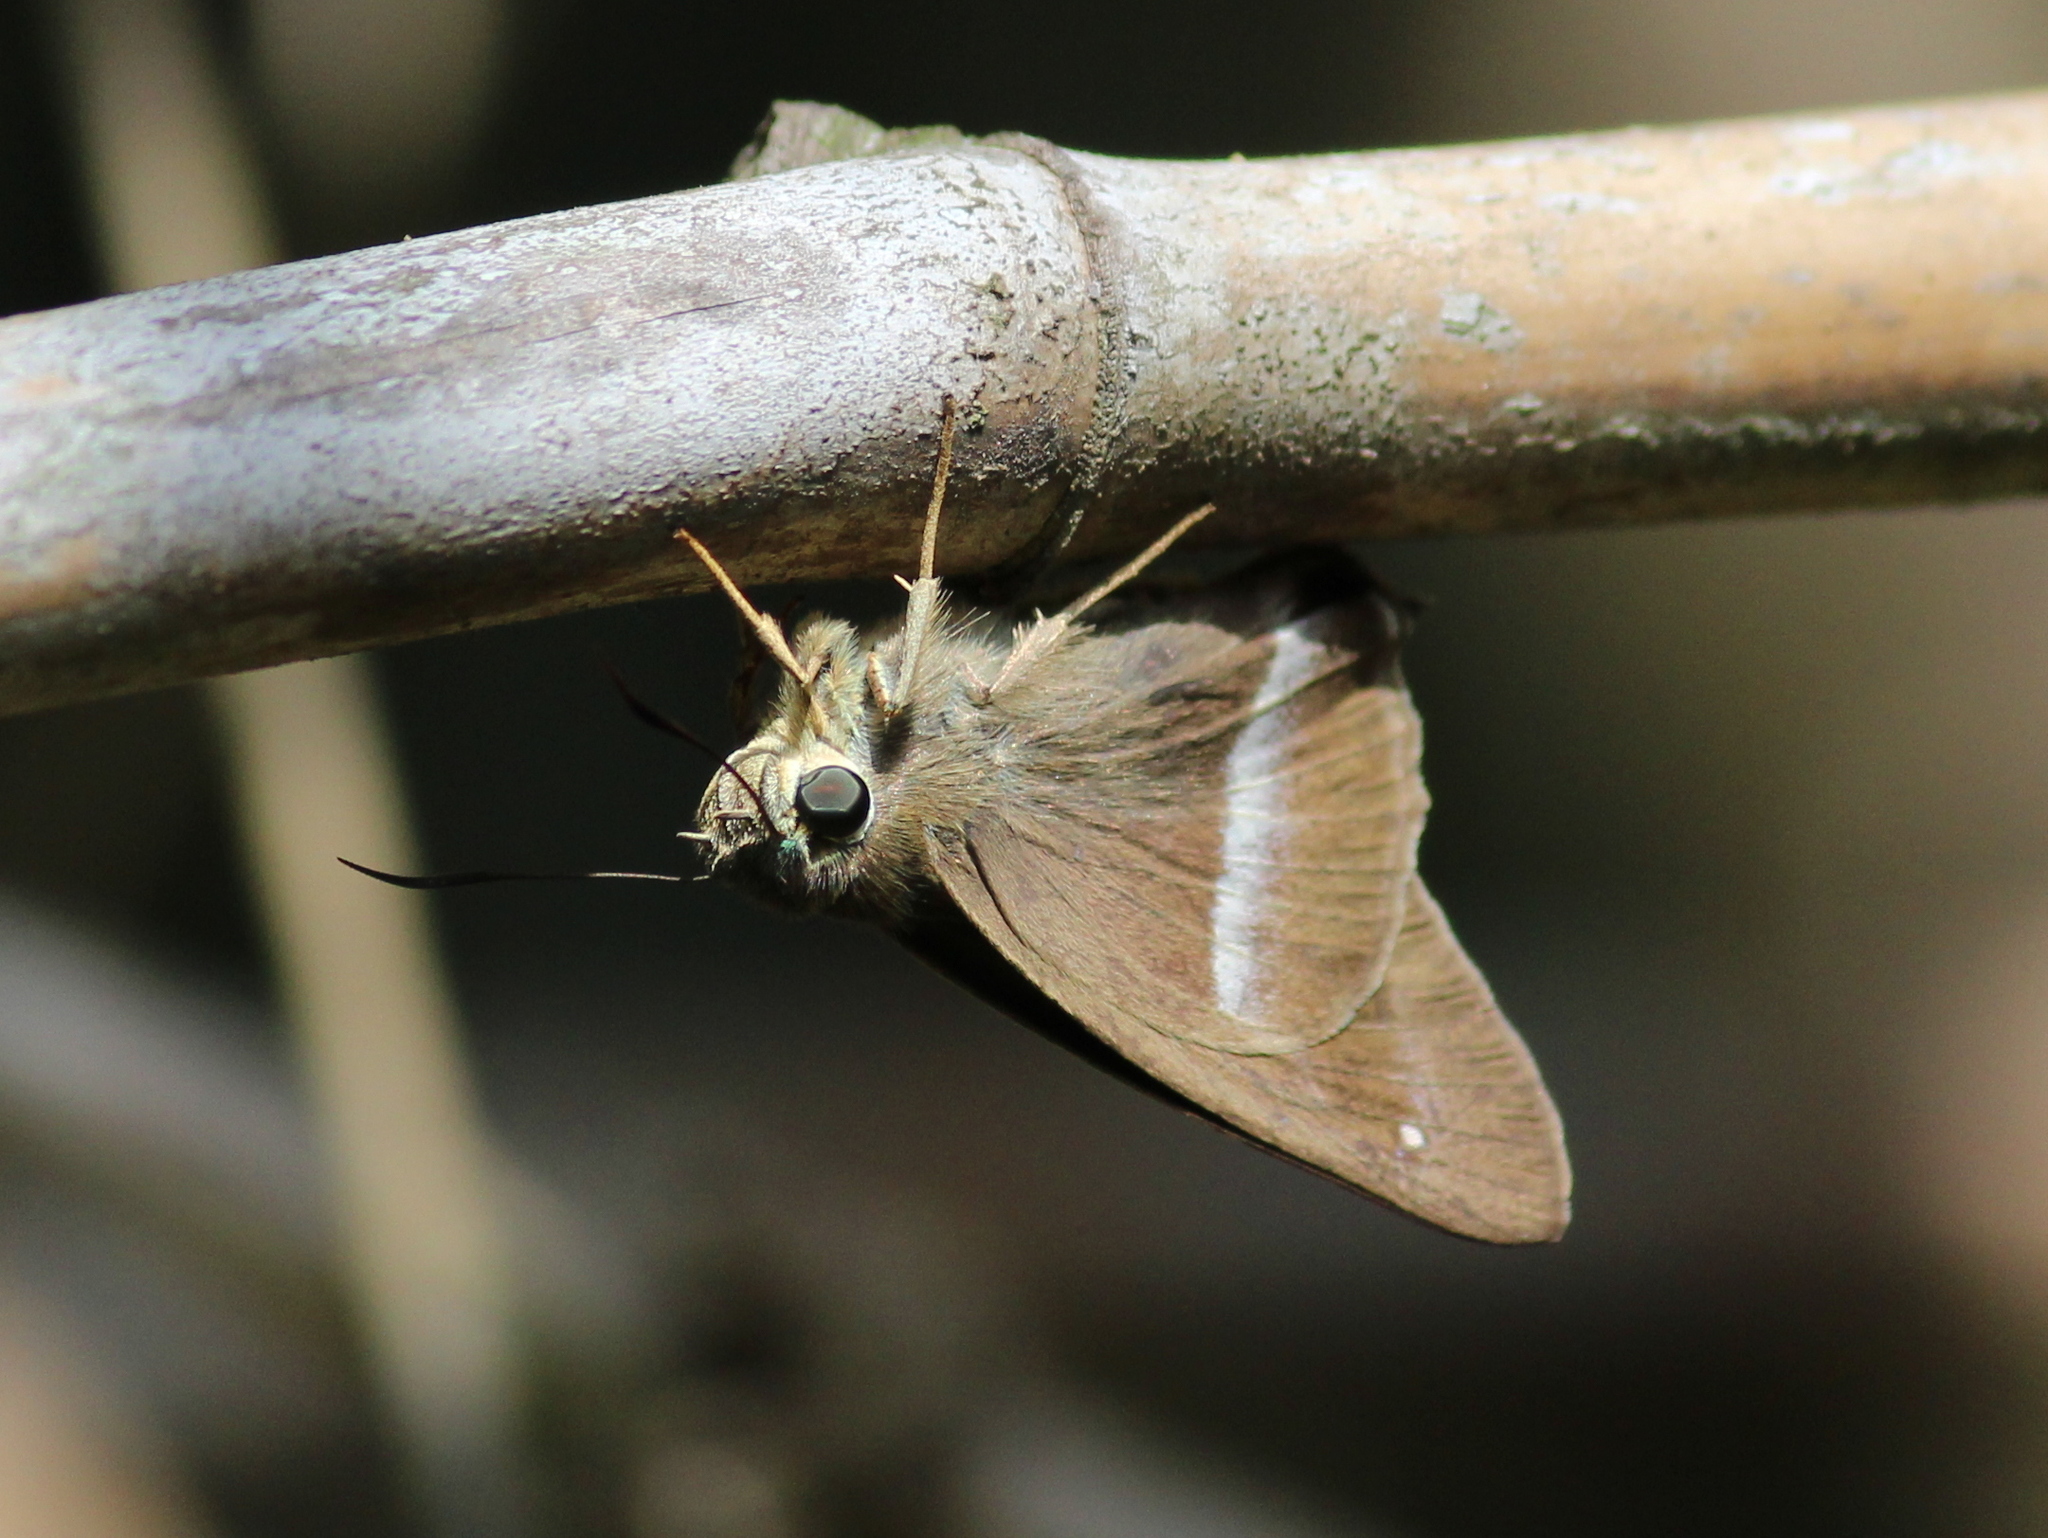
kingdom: Animalia
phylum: Arthropoda
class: Insecta
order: Lepidoptera
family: Hesperiidae
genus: Hasora
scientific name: Hasora chromus
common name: Common banded awl
